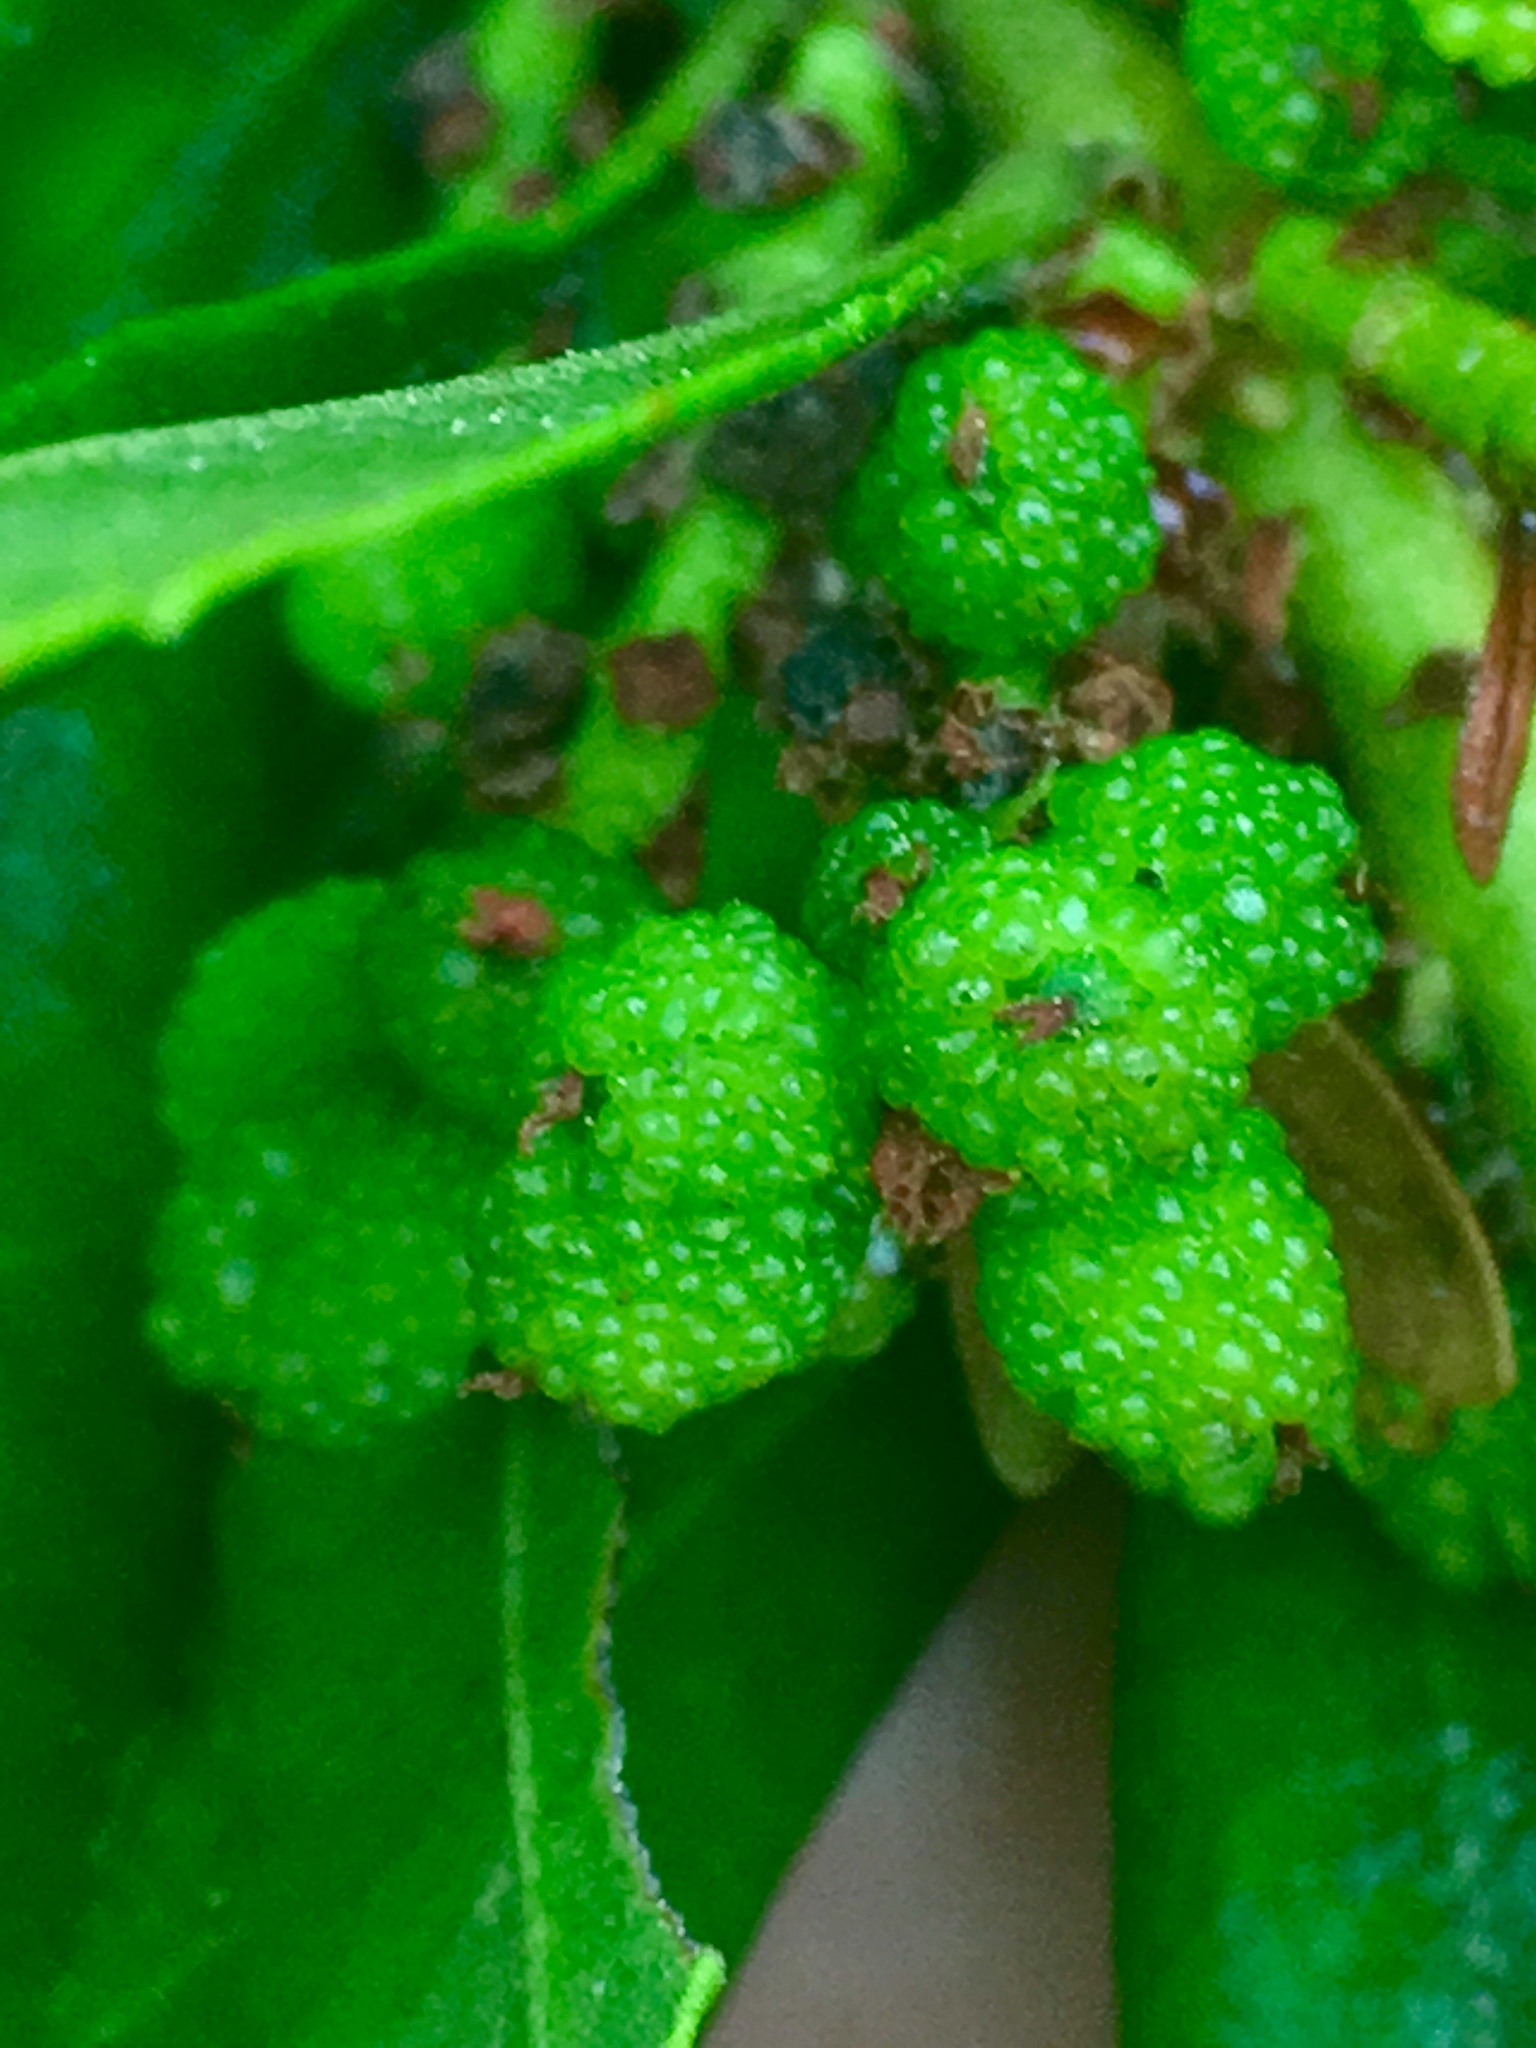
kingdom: Plantae
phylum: Tracheophyta
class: Magnoliopsida
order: Fagales
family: Myricaceae
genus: Morella
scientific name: Morella californica
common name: California wax-myrtle
